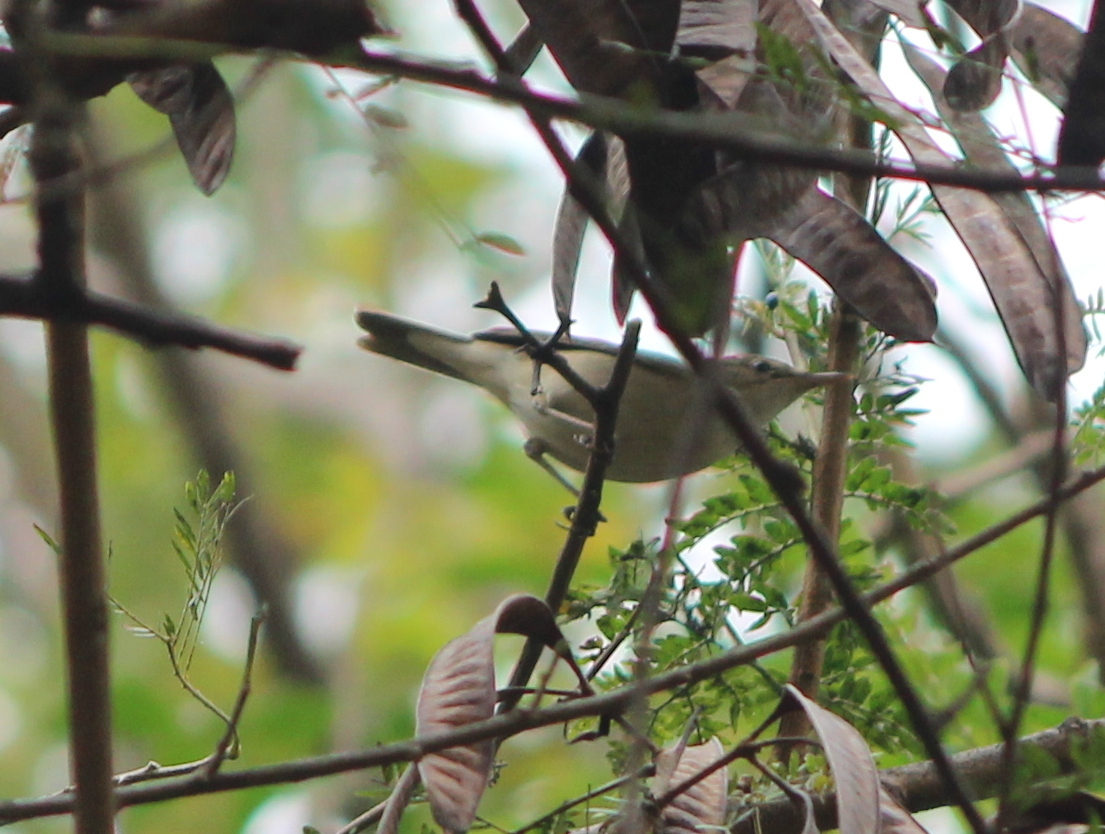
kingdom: Animalia
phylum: Chordata
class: Aves
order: Passeriformes
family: Acrocephalidae
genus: Acrocephalus
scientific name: Acrocephalus dumetorum
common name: Blyth's reed warbler
